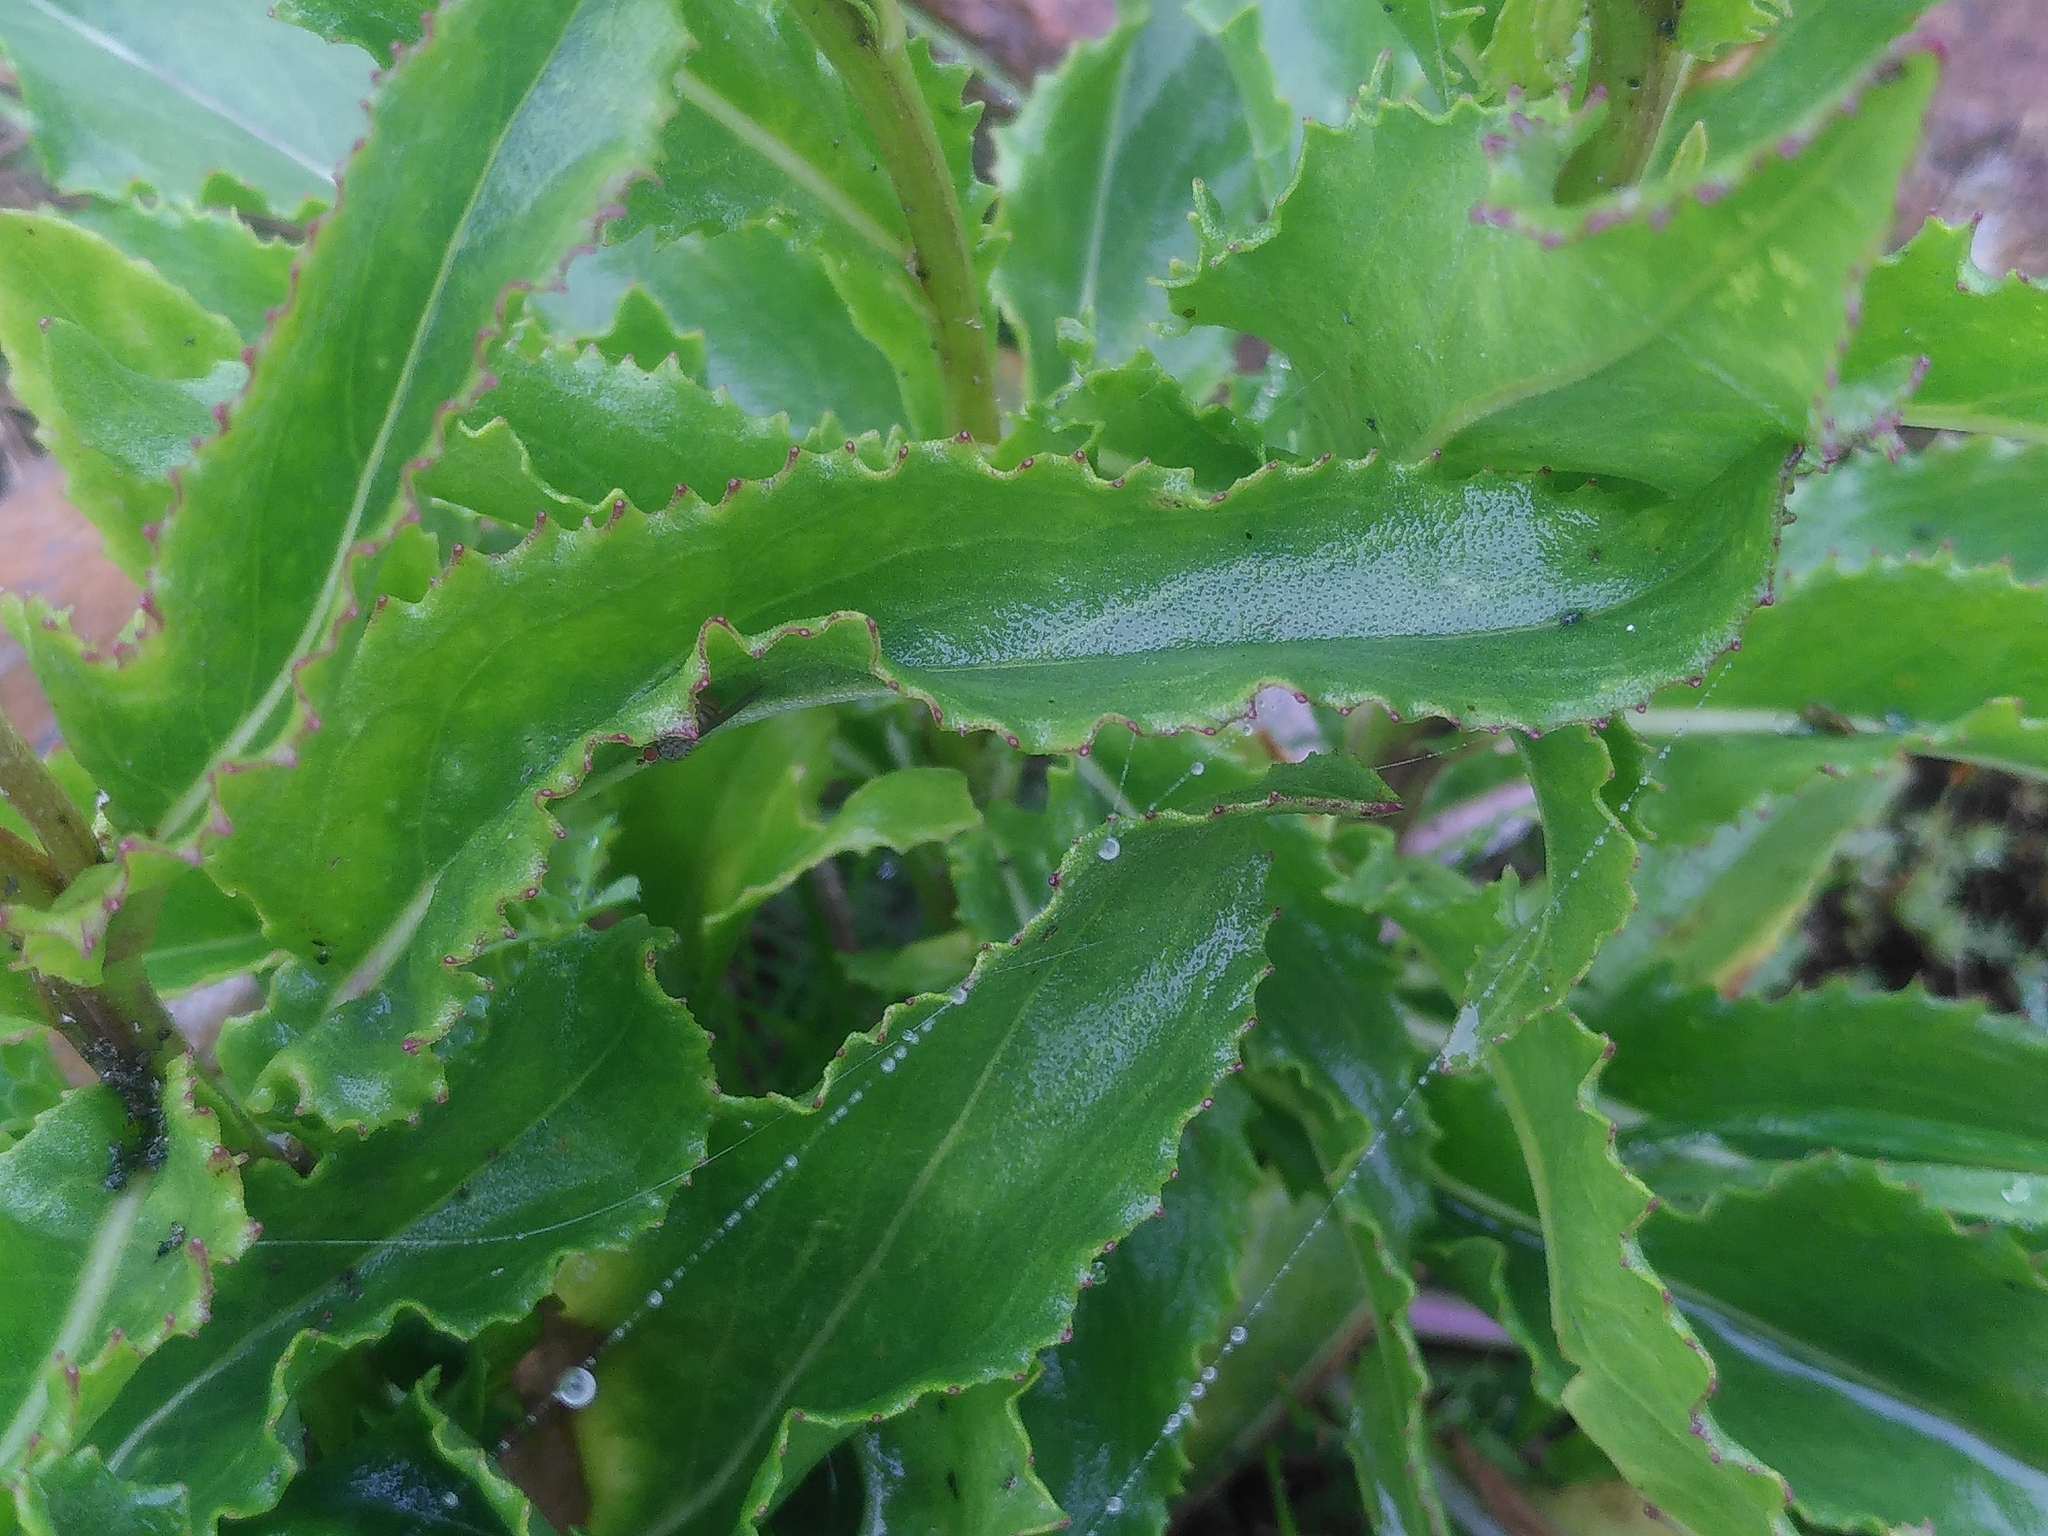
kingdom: Plantae
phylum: Tracheophyta
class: Magnoliopsida
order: Asterales
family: Asteraceae
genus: Senecio
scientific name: Senecio pyrenaicus
